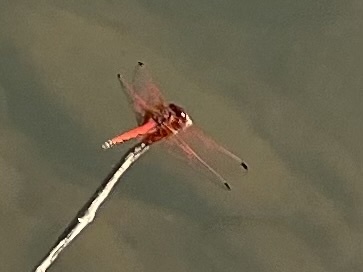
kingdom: Animalia
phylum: Arthropoda
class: Insecta
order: Odonata
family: Libellulidae
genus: Trithemis
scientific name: Trithemis arteriosa
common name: Red-veined dropwing
